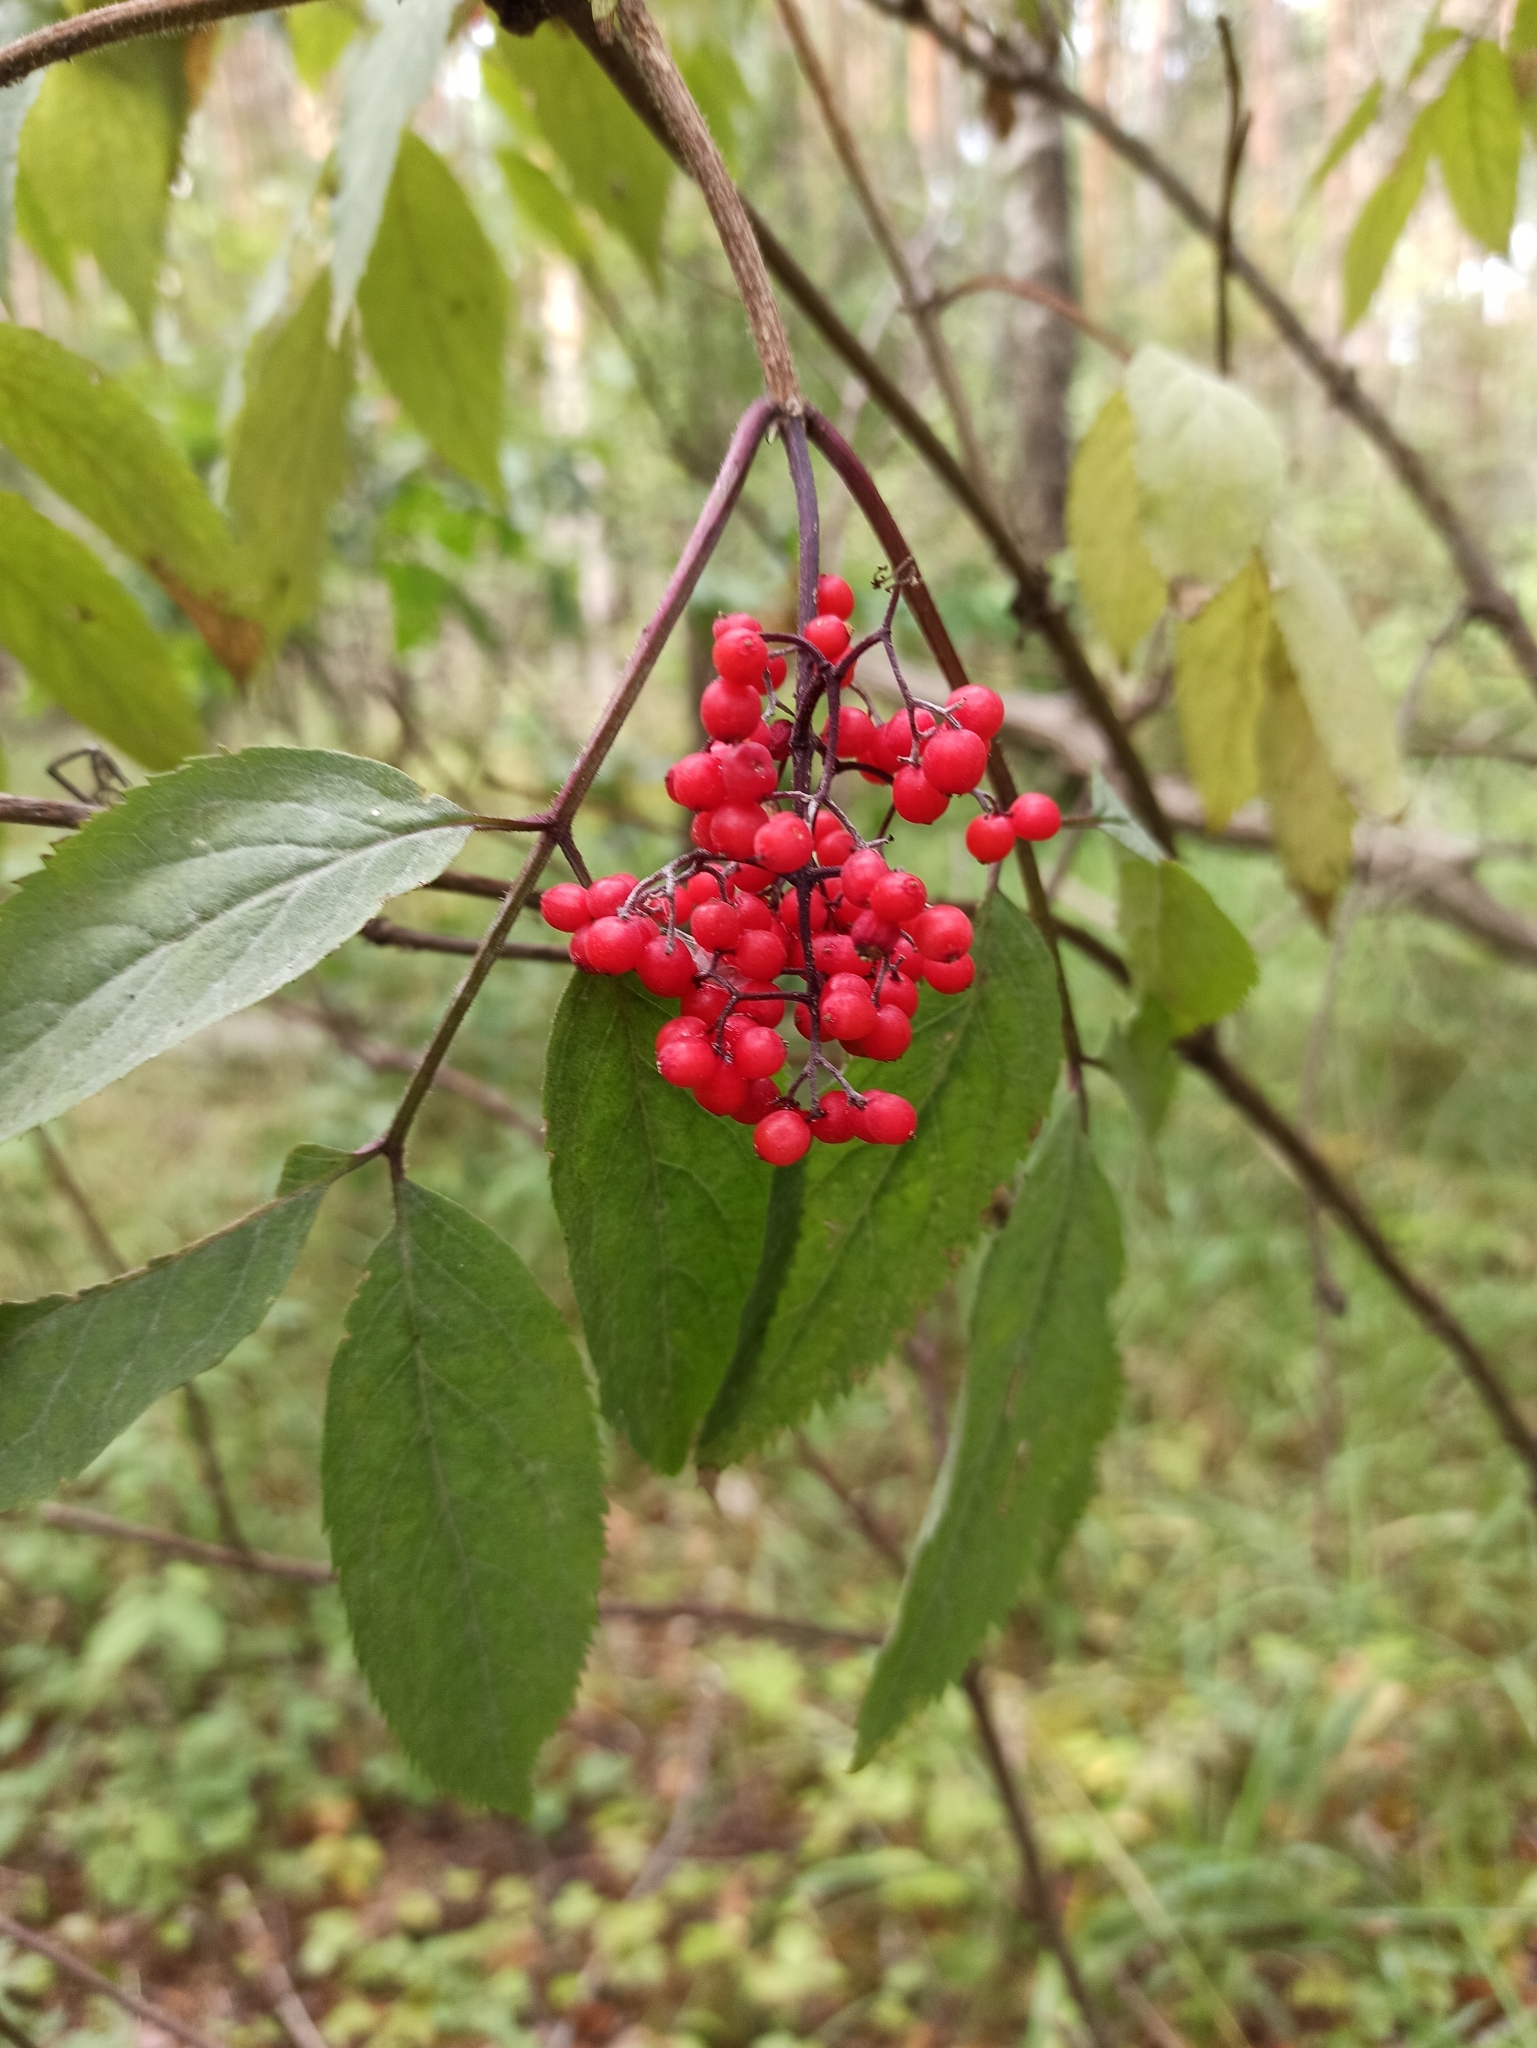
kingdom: Plantae
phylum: Tracheophyta
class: Magnoliopsida
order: Dipsacales
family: Viburnaceae
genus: Sambucus
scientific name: Sambucus racemosa
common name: Red-berried elder
